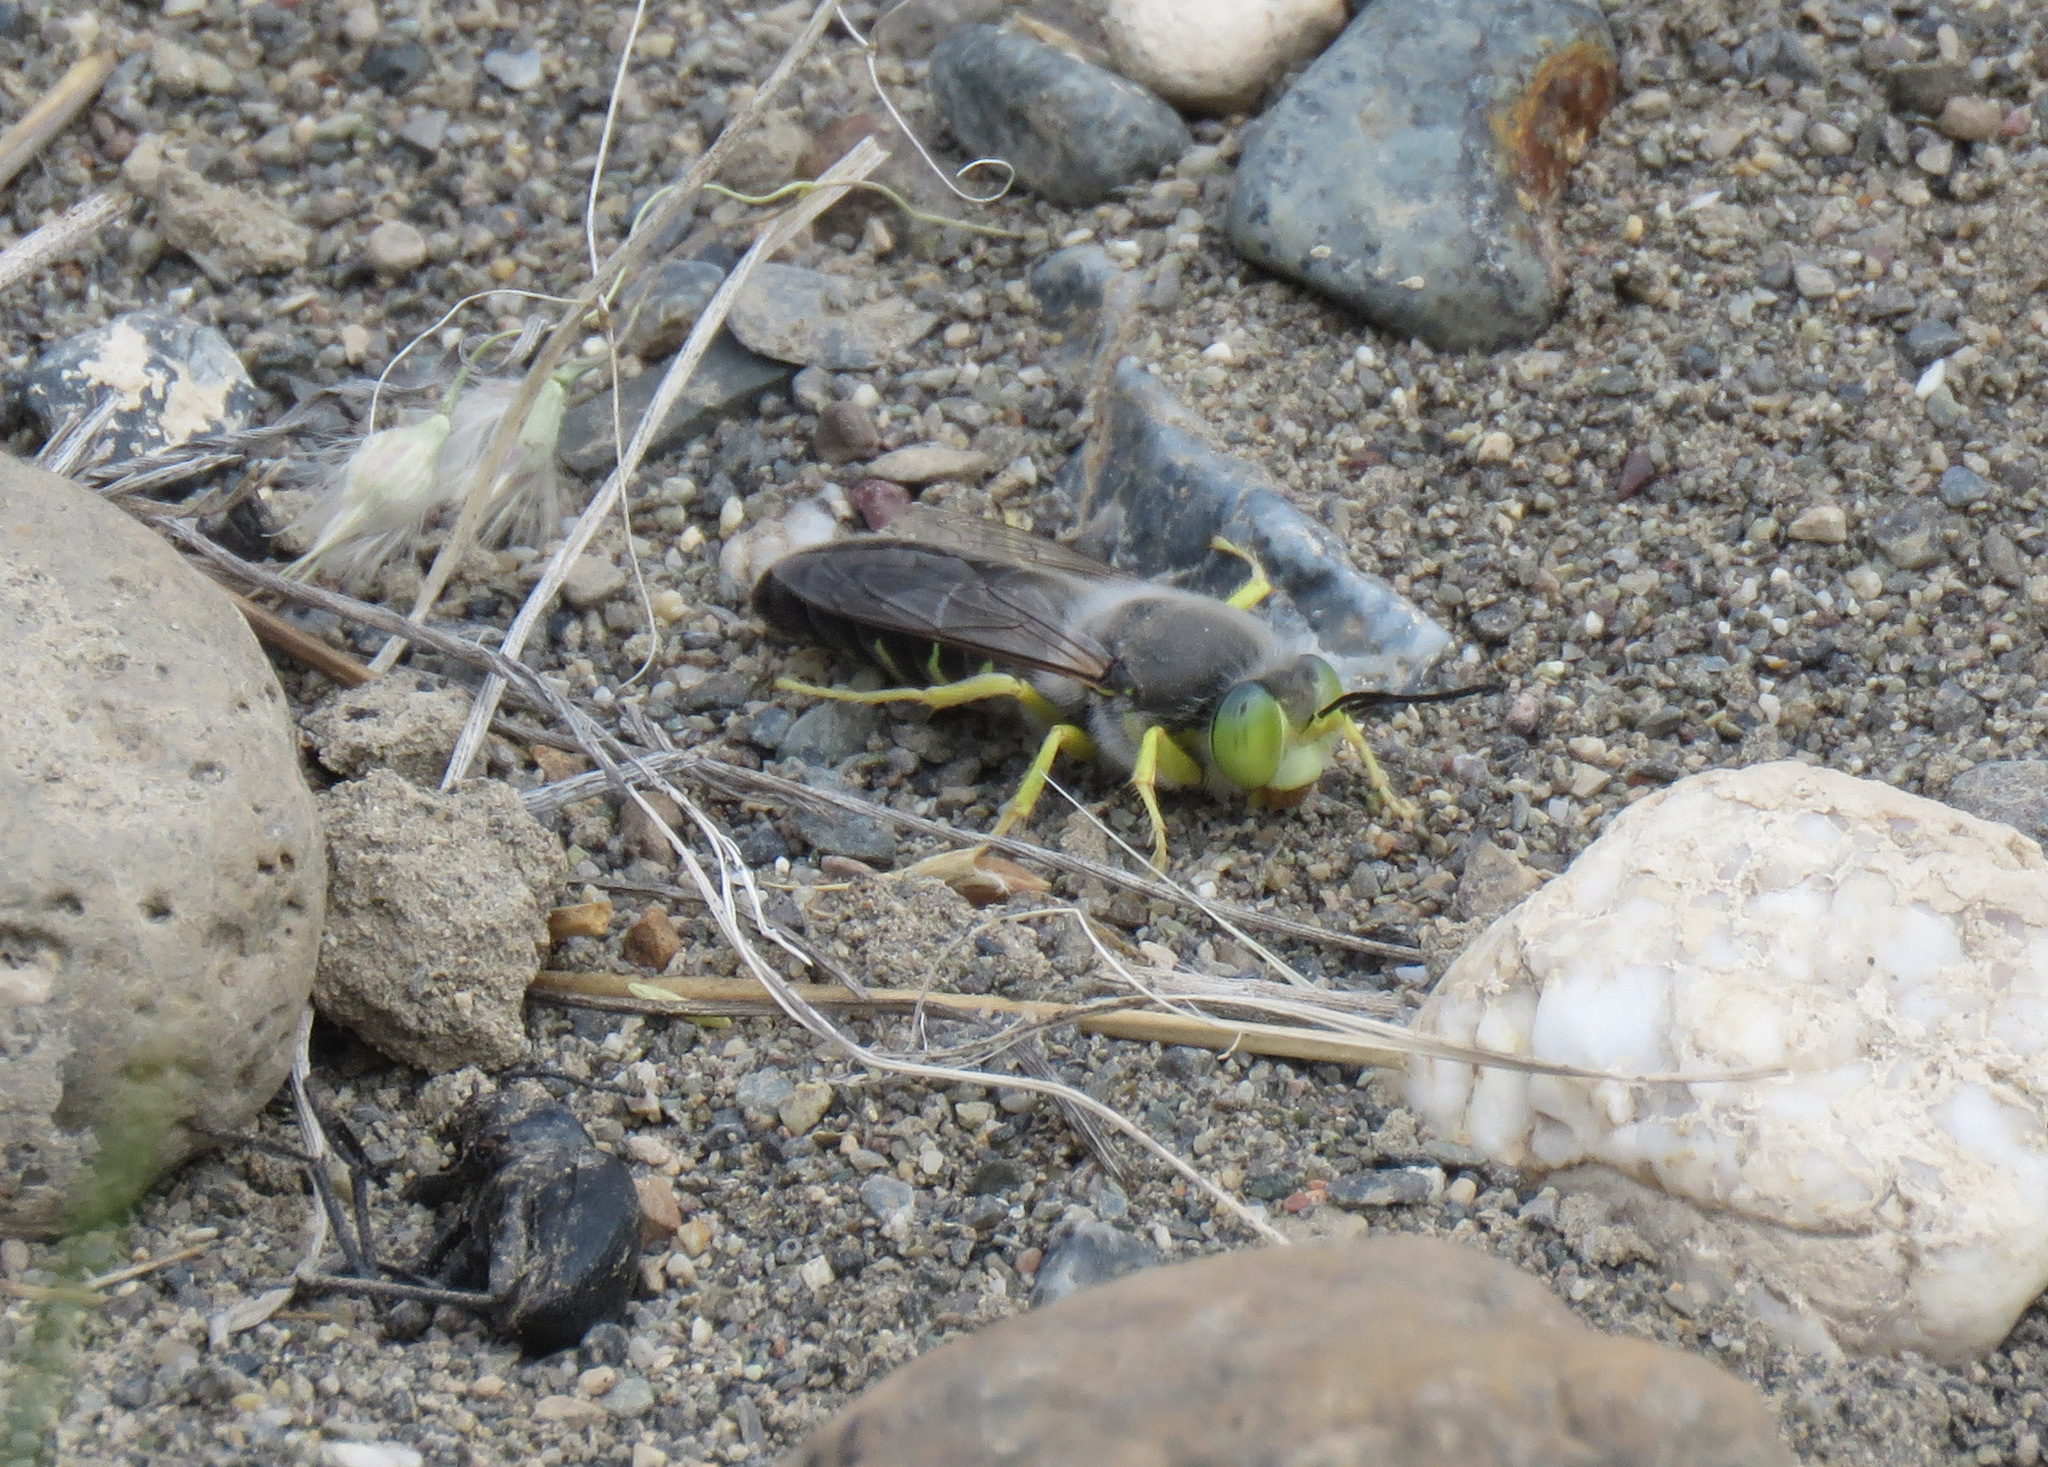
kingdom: Animalia
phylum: Arthropoda
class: Insecta
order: Hymenoptera
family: Crabronidae
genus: Bembix
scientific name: Bembix amoena
